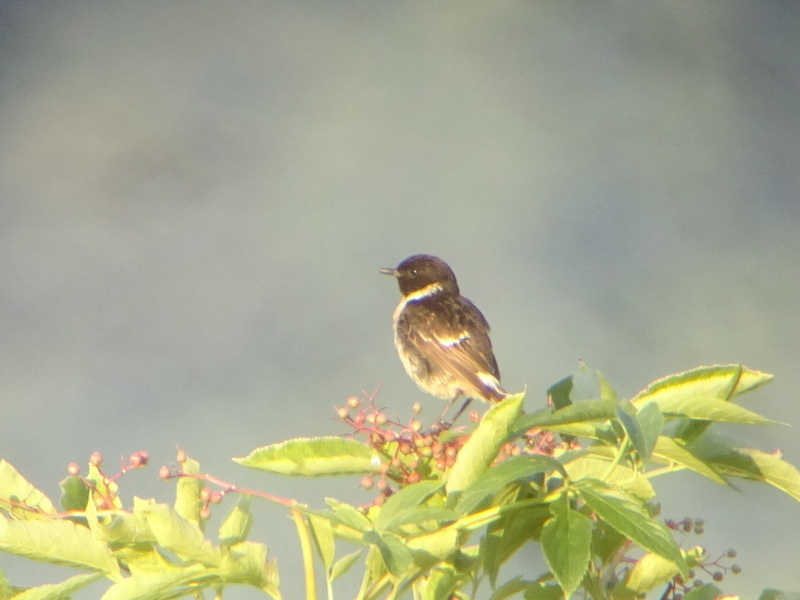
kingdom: Animalia
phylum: Chordata
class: Aves
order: Passeriformes
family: Muscicapidae
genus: Saxicola
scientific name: Saxicola rubicola
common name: European stonechat
